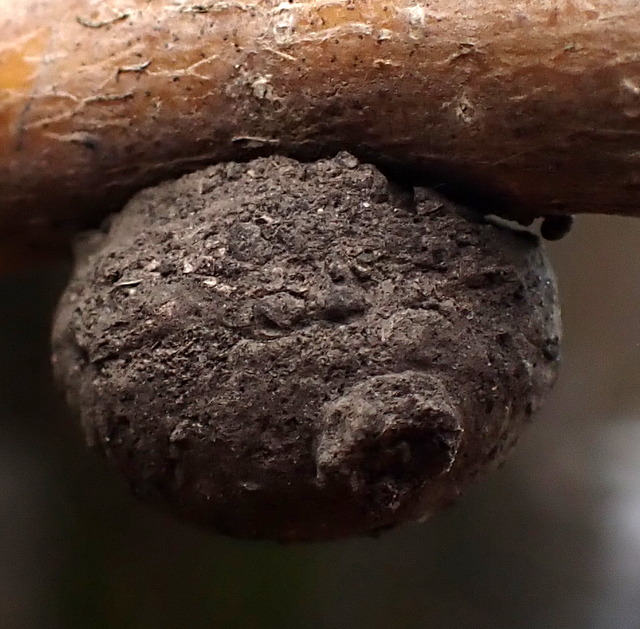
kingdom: Animalia
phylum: Arthropoda
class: Insecta
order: Hymenoptera
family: Vespidae
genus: Eumenes
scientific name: Eumenes
